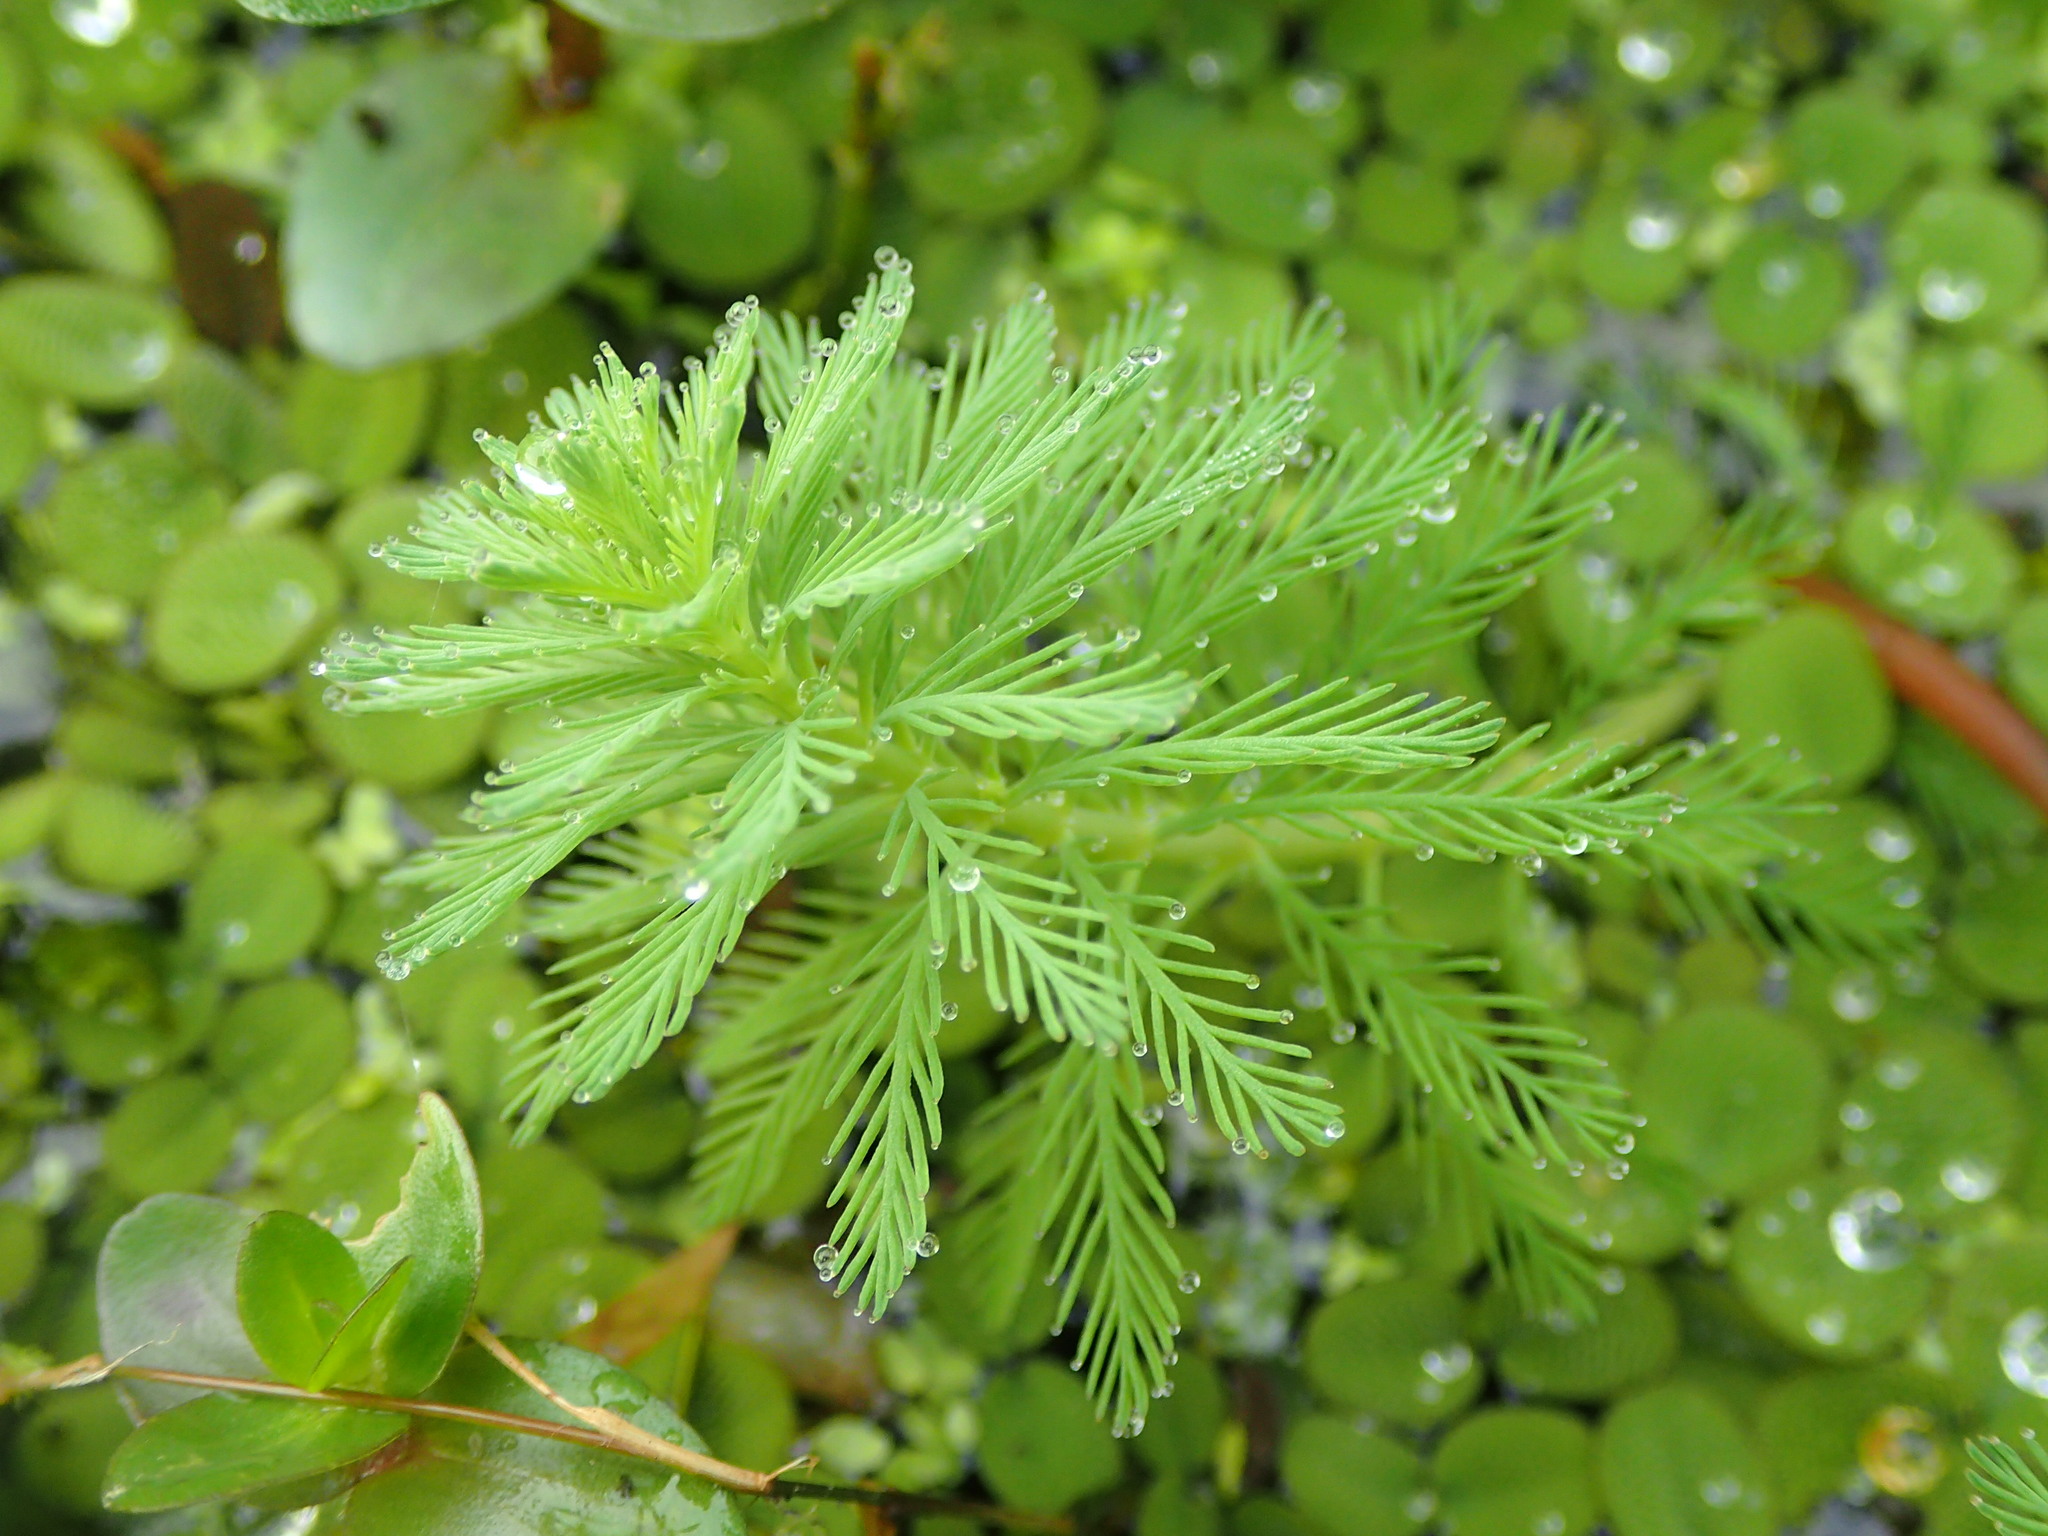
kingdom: Plantae
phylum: Tracheophyta
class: Magnoliopsida
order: Saxifragales
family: Haloragaceae
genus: Myriophyllum
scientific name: Myriophyllum aquaticum
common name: Parrot's feather
